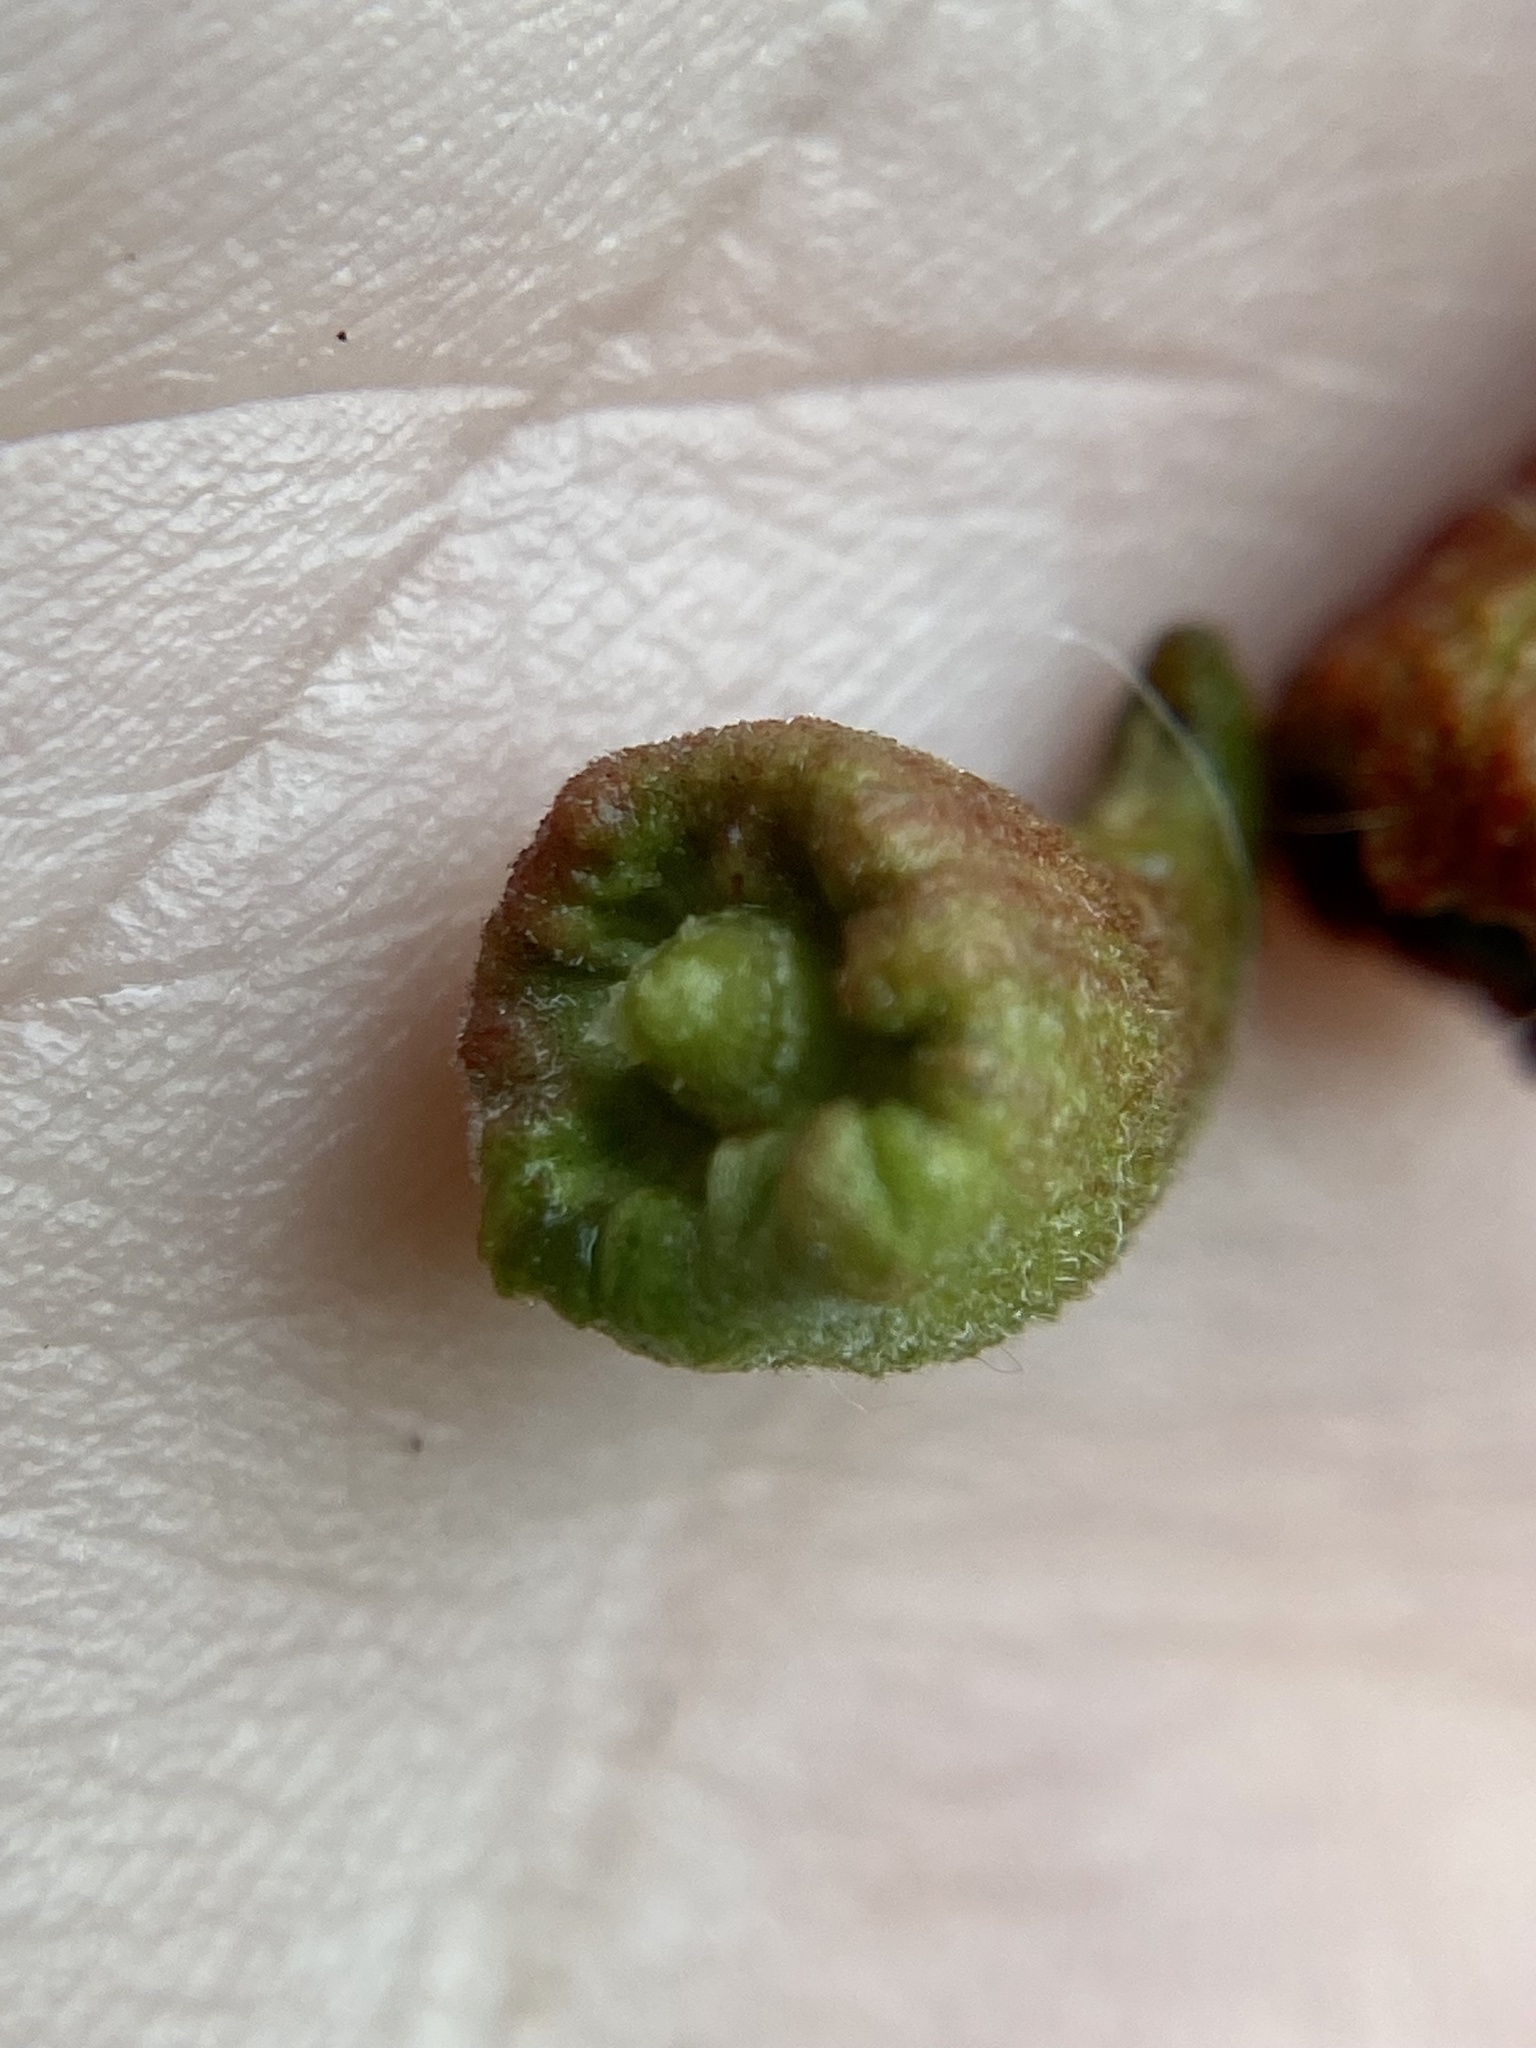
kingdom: Animalia
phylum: Arthropoda
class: Insecta
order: Hymenoptera
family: Cynipidae
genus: Callirhytis
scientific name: Callirhytis
